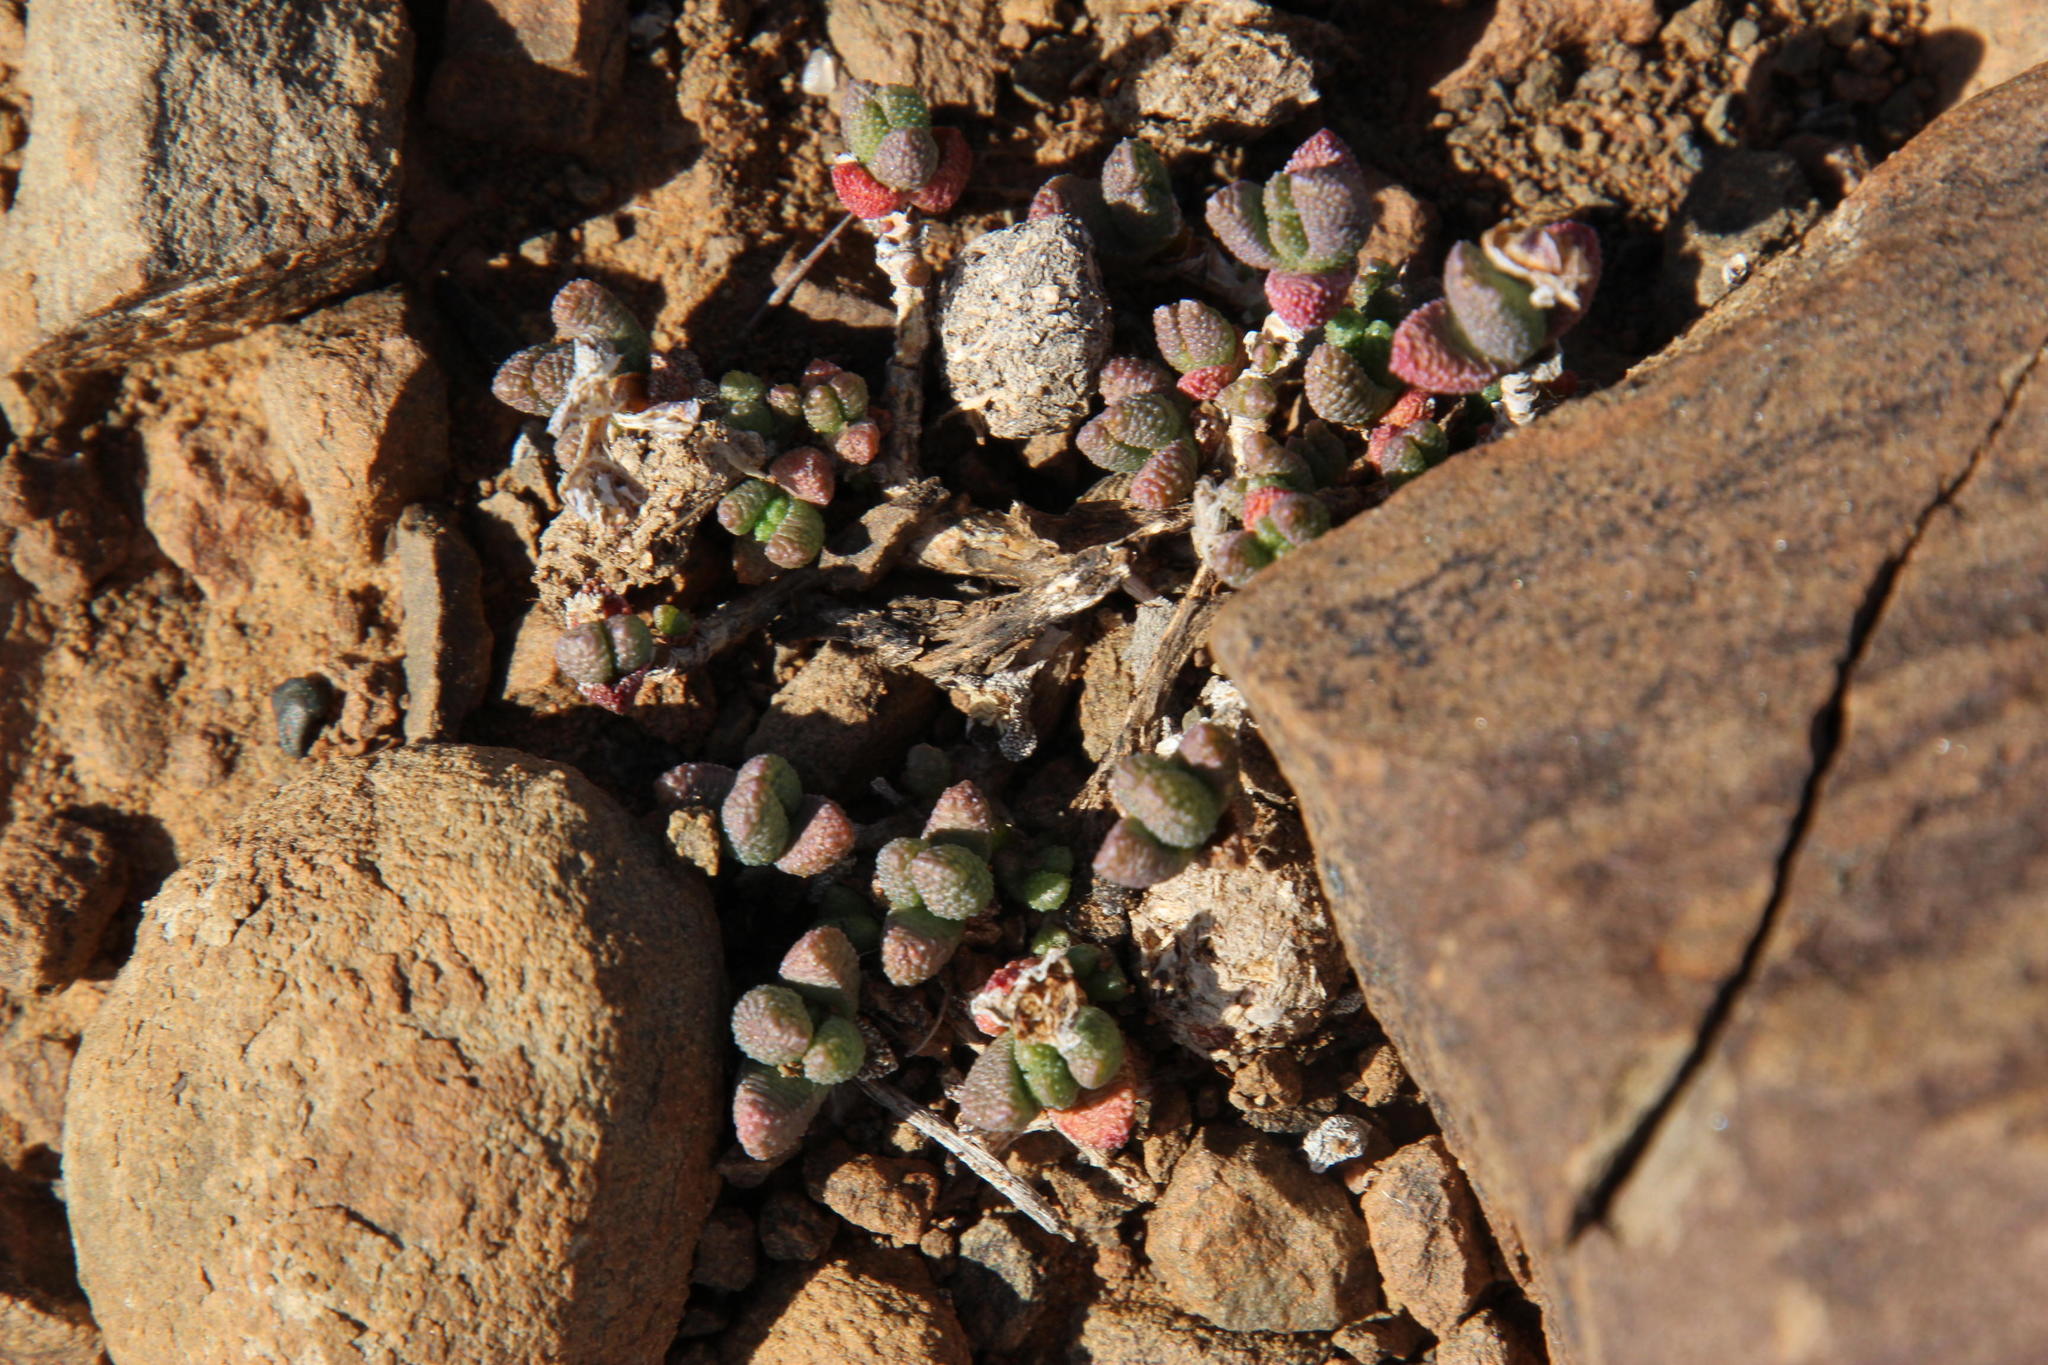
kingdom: Plantae
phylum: Tracheophyta
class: Magnoliopsida
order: Caryophyllales
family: Aizoaceae
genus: Rhinephyllum
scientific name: Rhinephyllum inaequale
